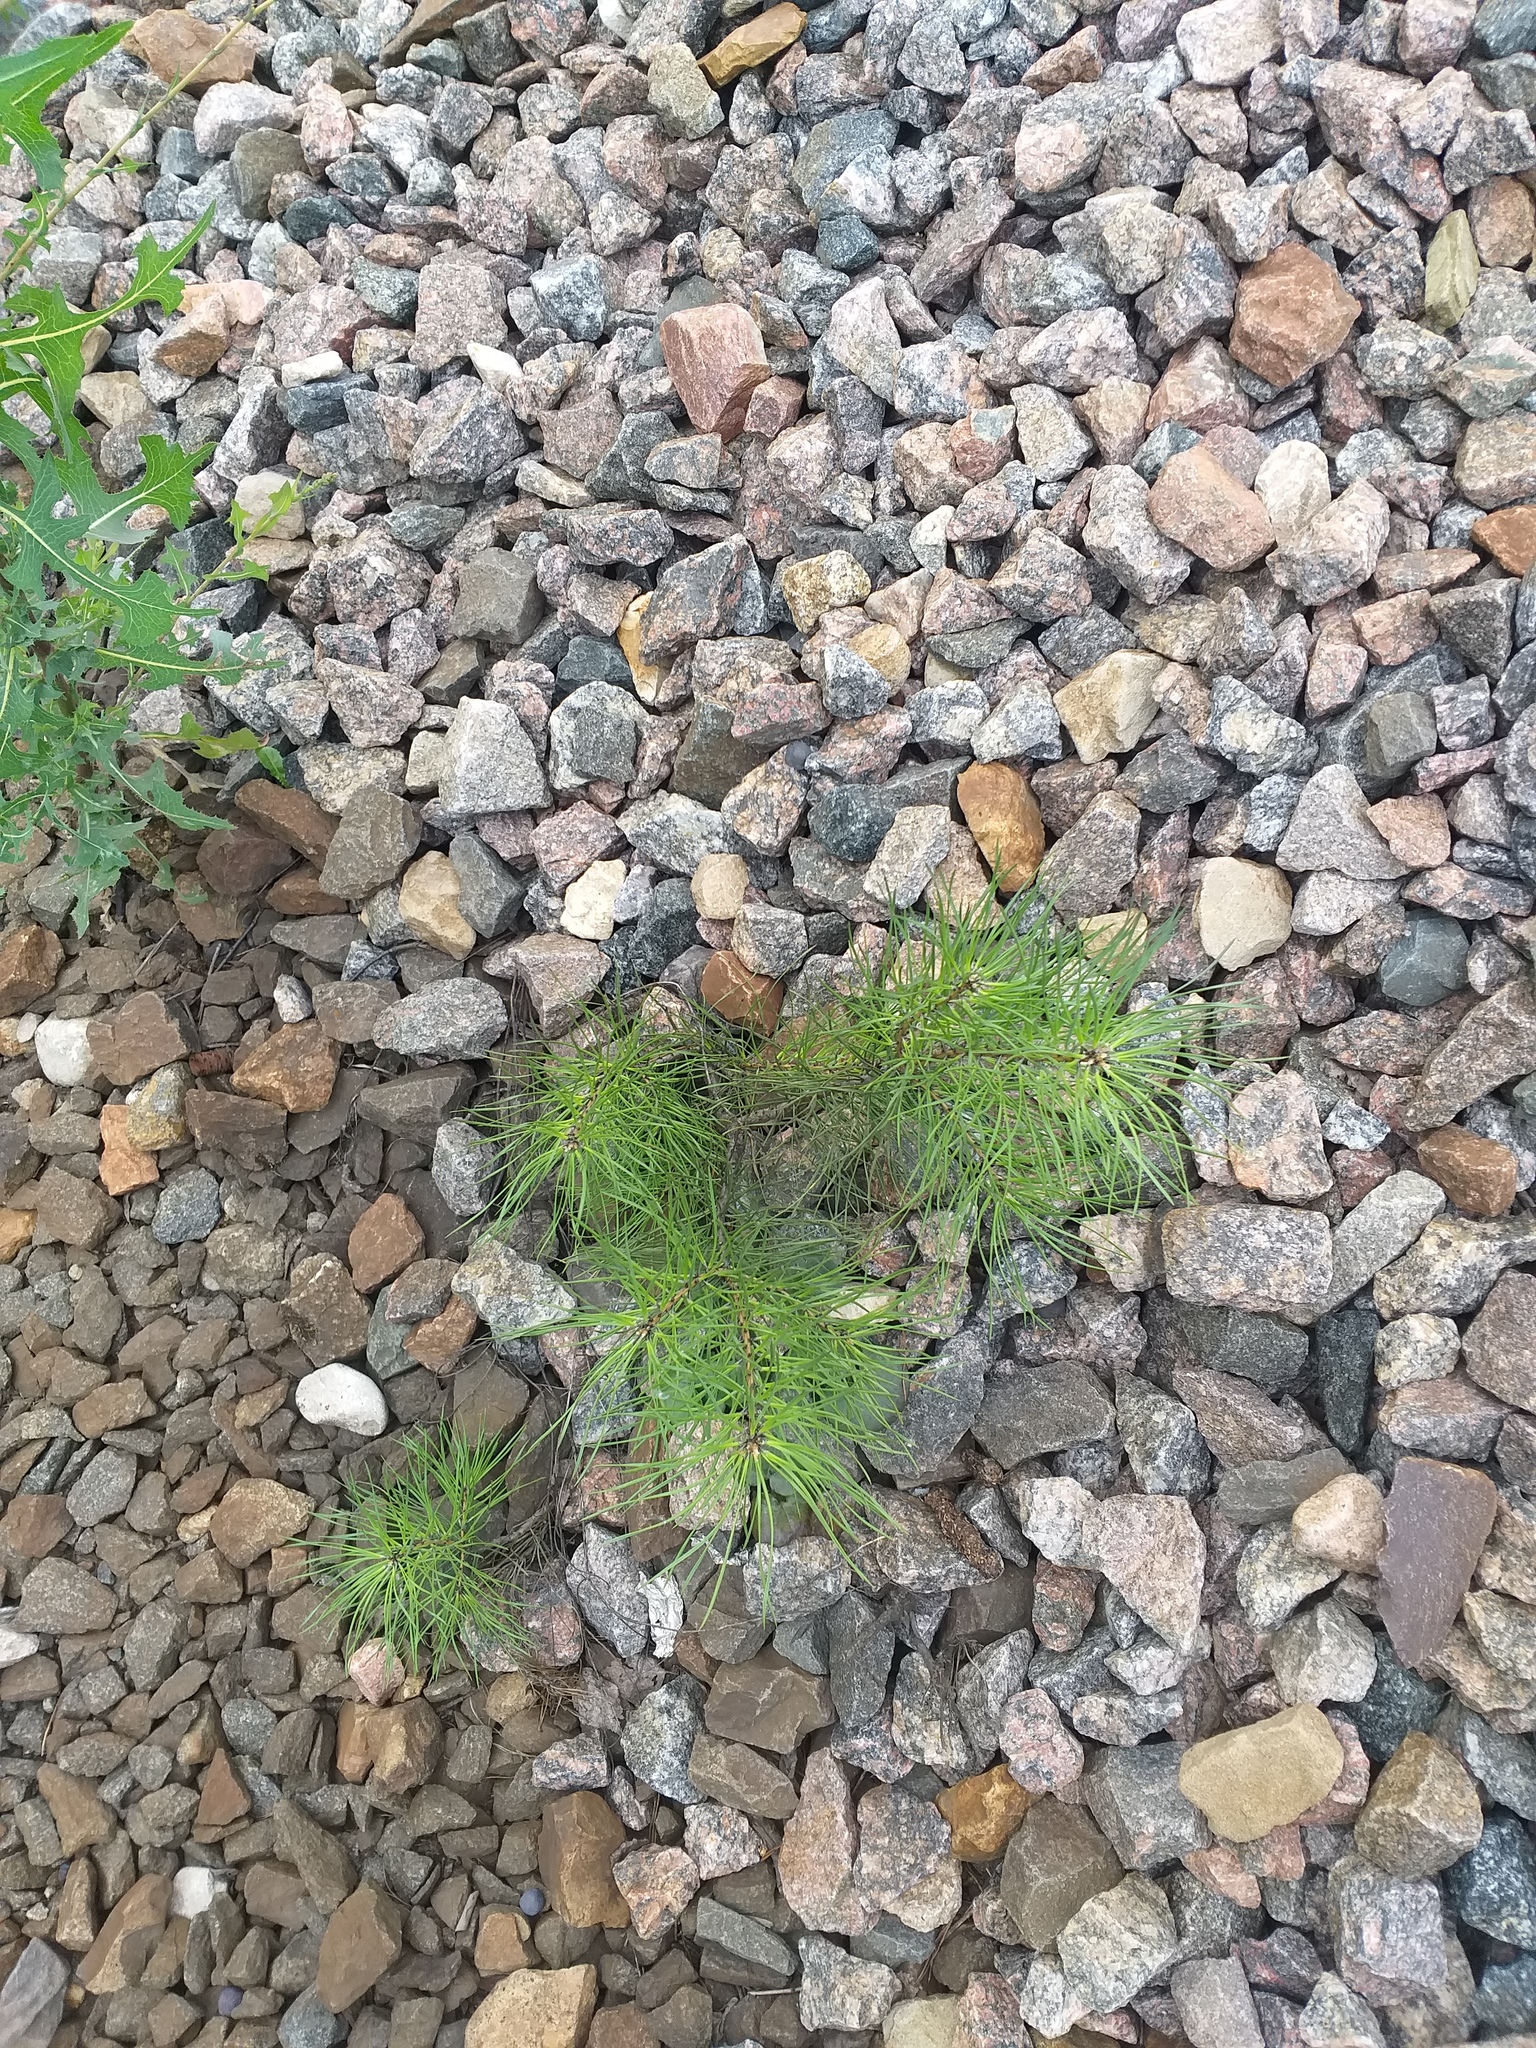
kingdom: Plantae
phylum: Tracheophyta
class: Pinopsida
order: Pinales
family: Pinaceae
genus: Pinus
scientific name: Pinus sylvestris
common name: Scots pine
